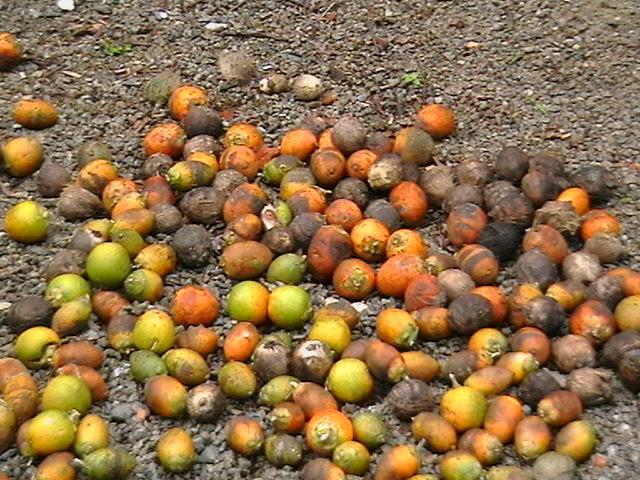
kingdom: Plantae
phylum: Tracheophyta
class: Liliopsida
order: Arecales
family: Arecaceae
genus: Areca
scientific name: Areca catechu
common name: Indian-nut
